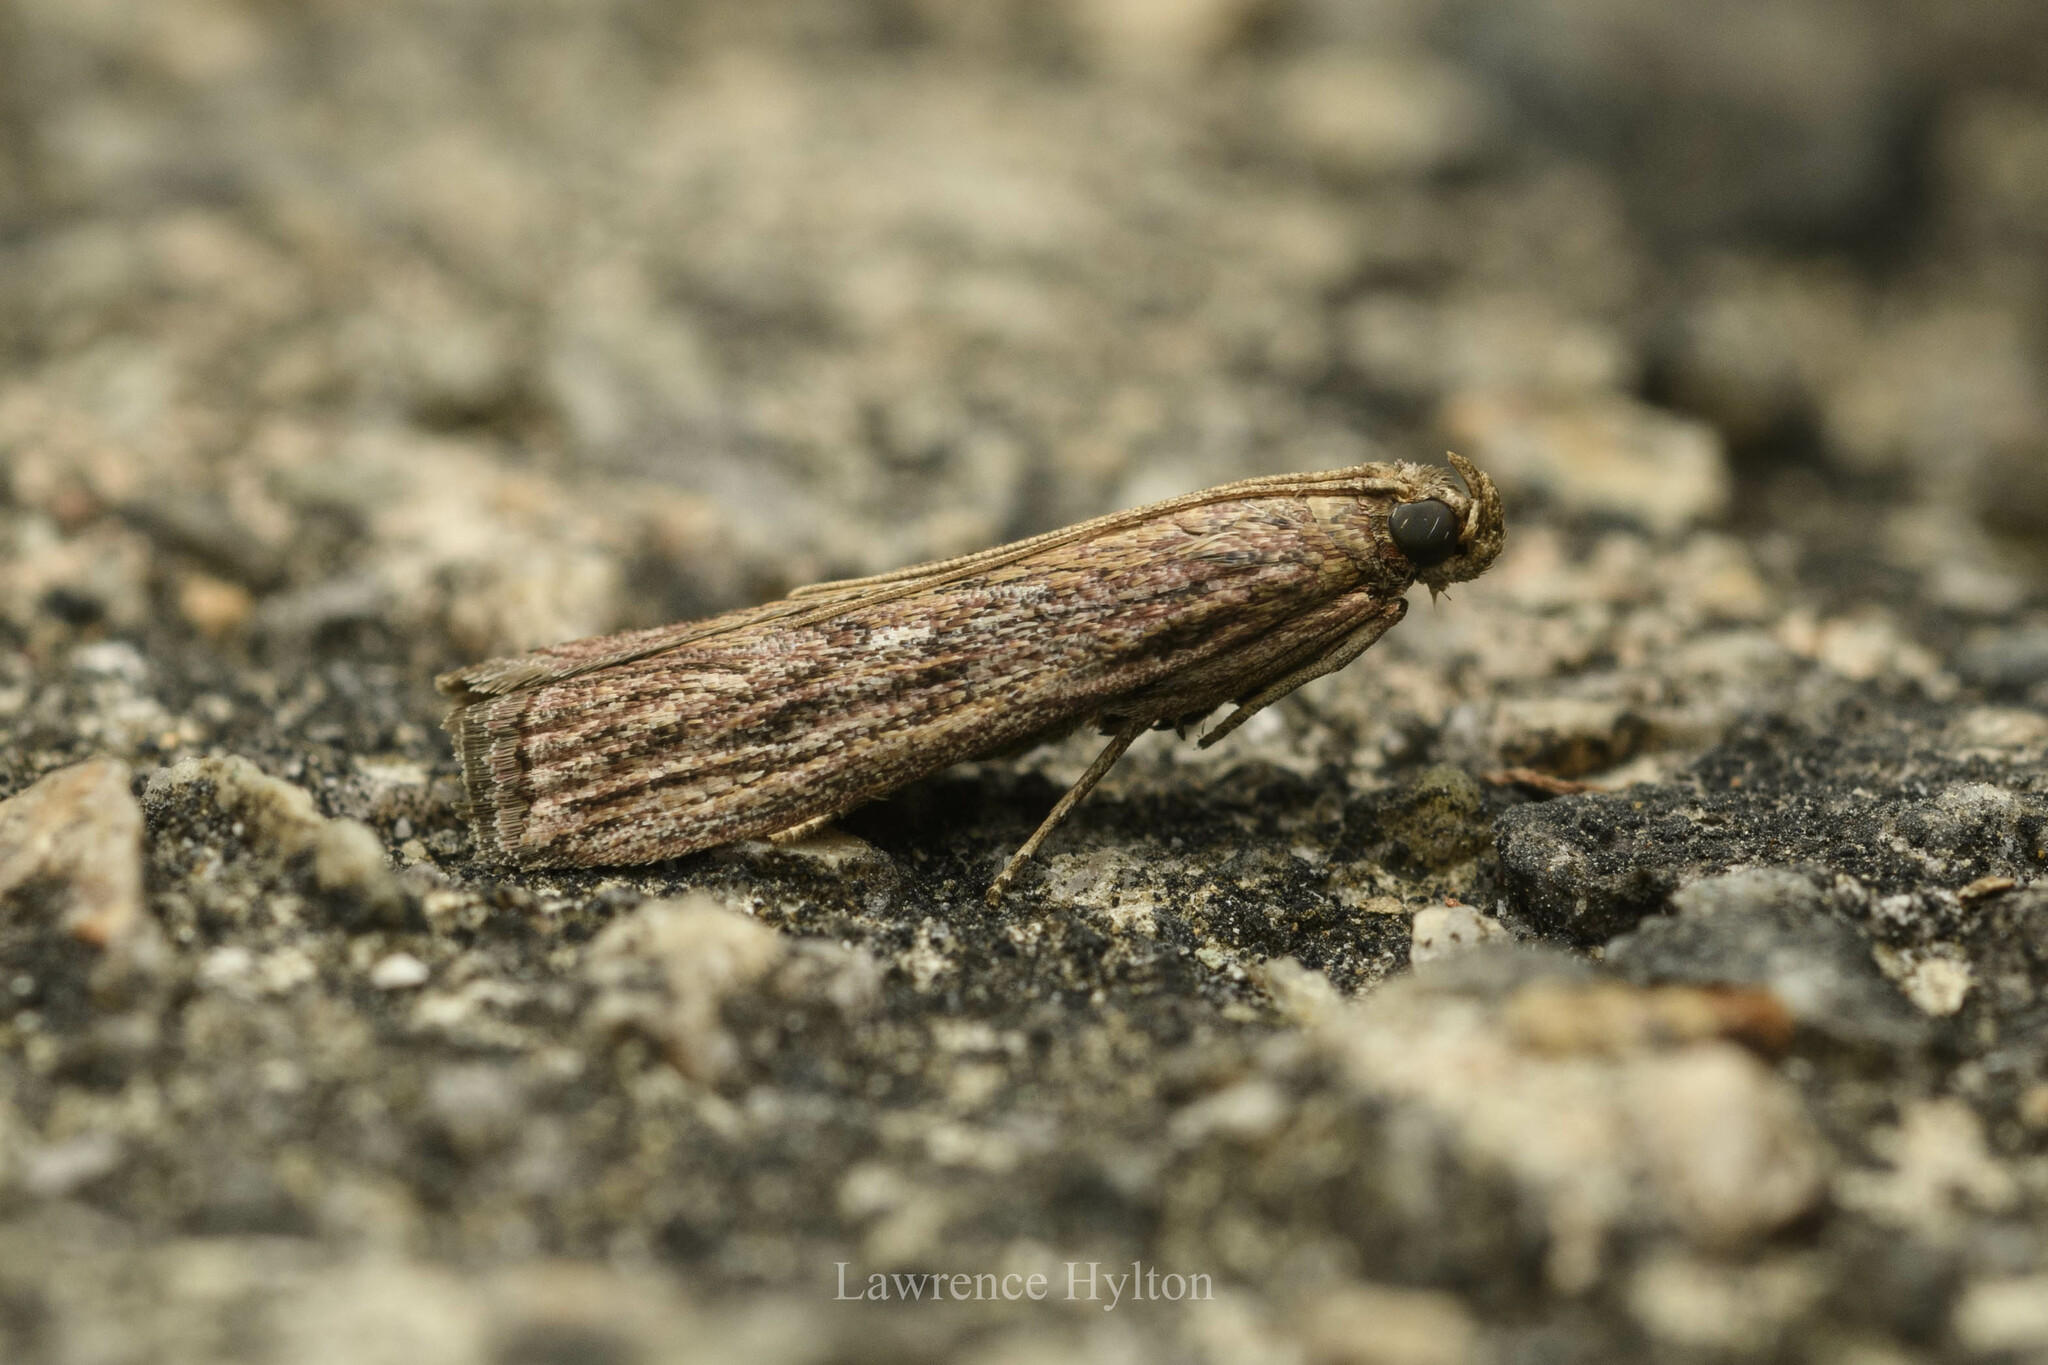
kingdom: Animalia
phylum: Arthropoda
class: Insecta
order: Lepidoptera
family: Pyralidae
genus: Zonula
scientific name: Zonula
